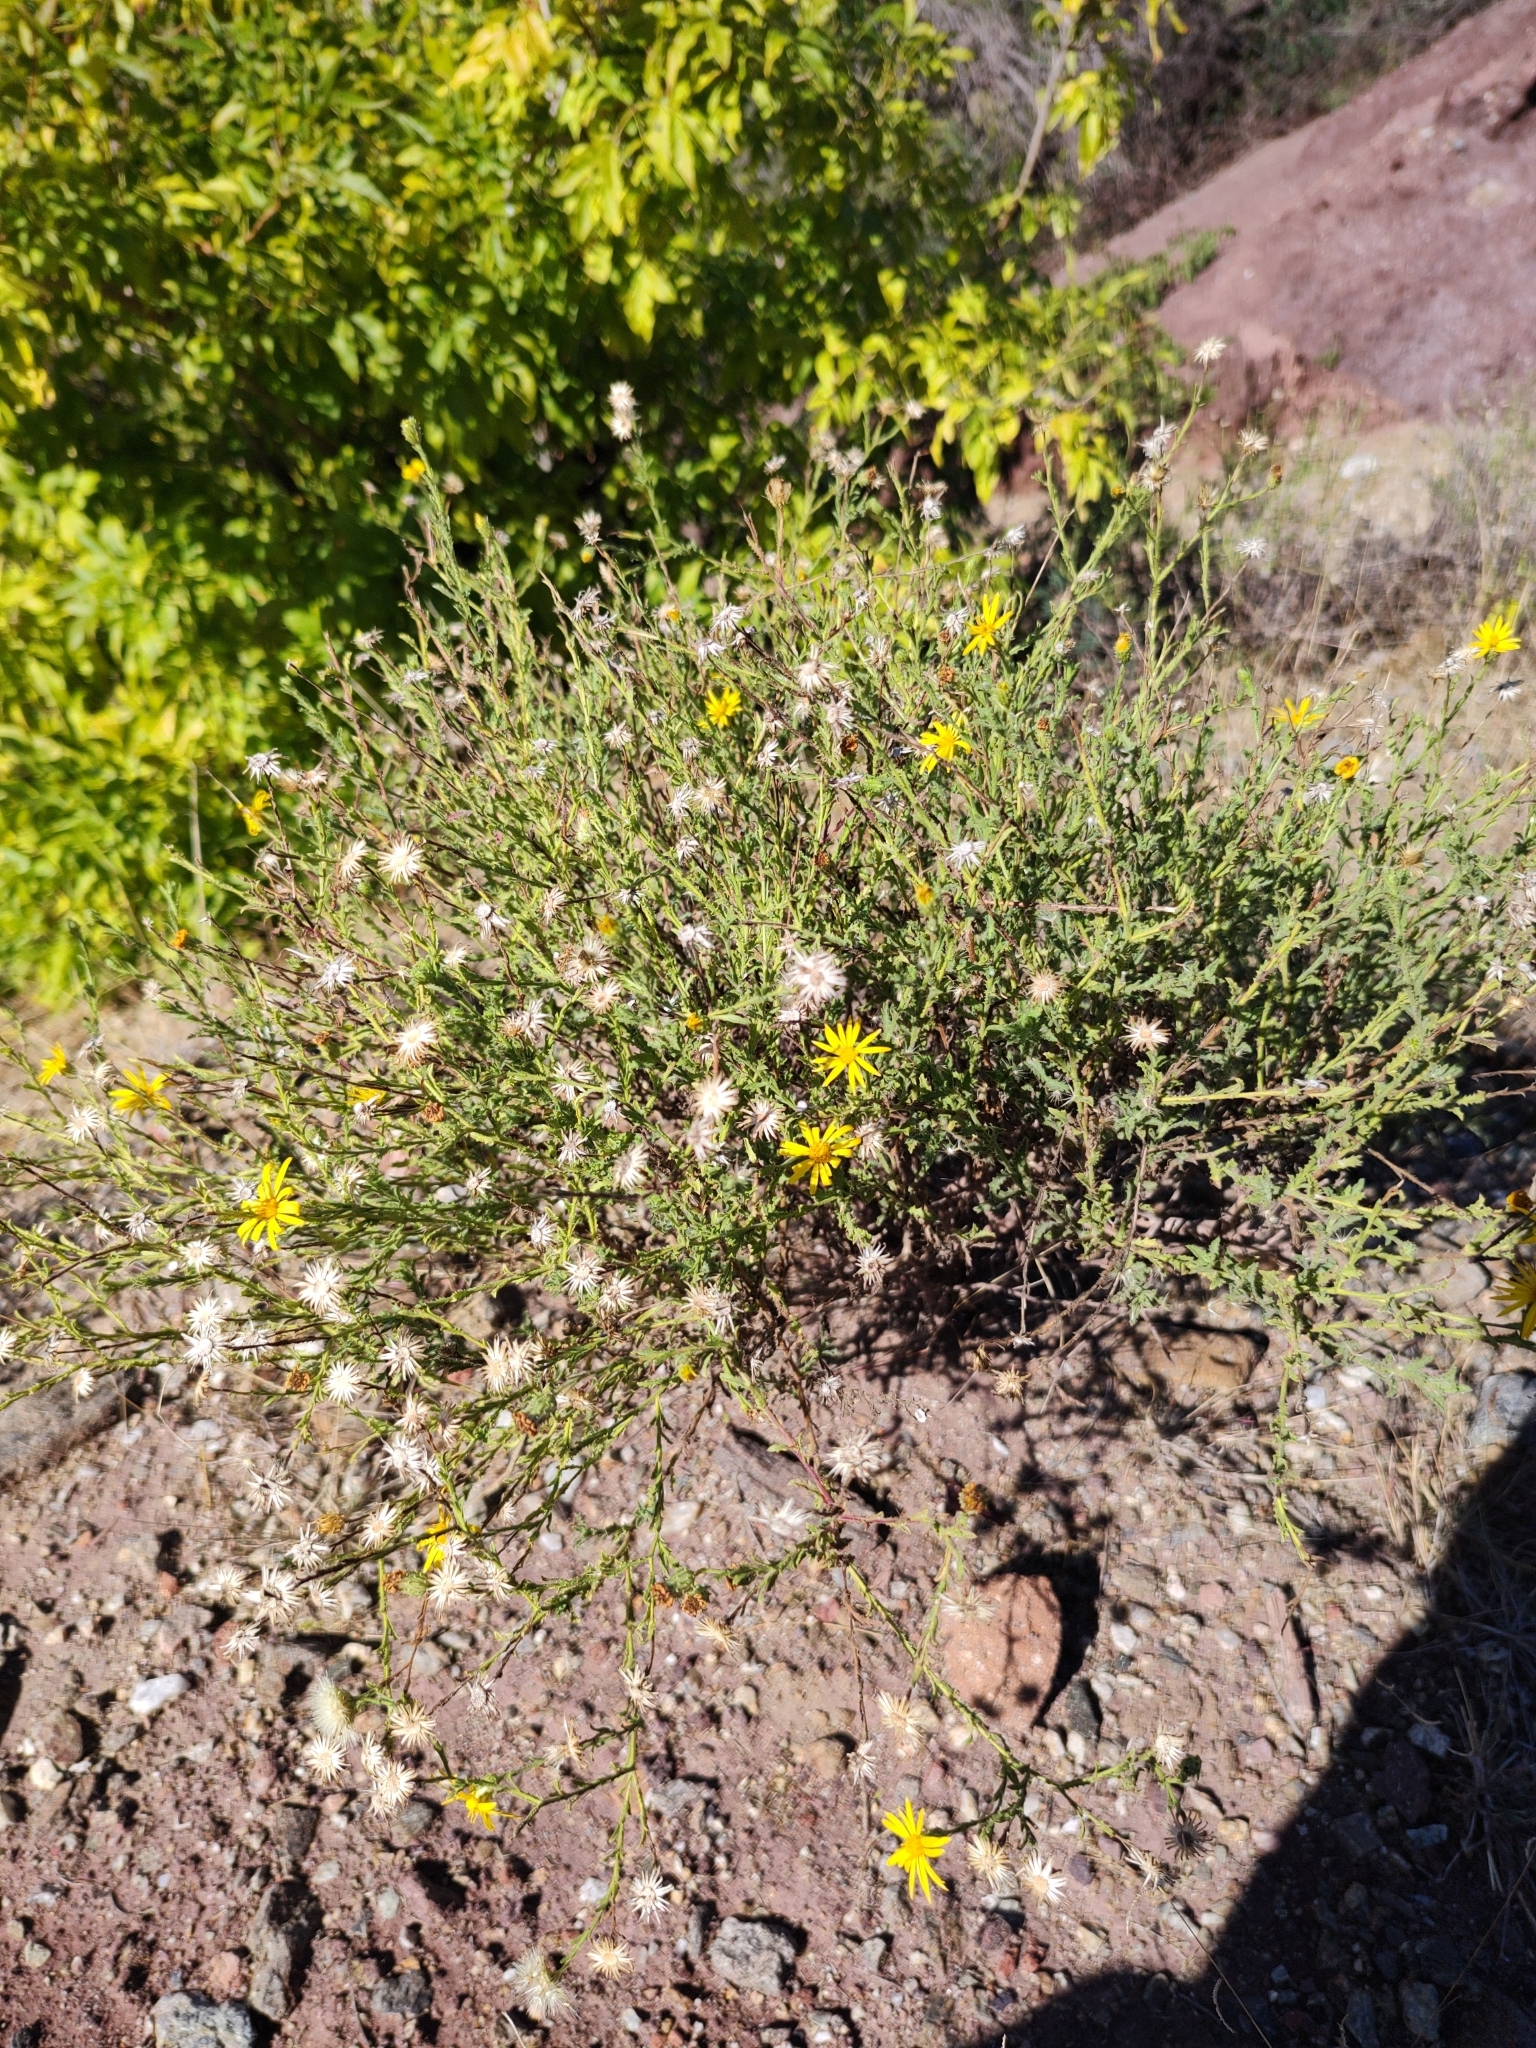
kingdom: Plantae
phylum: Tracheophyta
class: Magnoliopsida
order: Asterales
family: Asteraceae
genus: Xanthisma
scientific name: Xanthisma scabrellum
